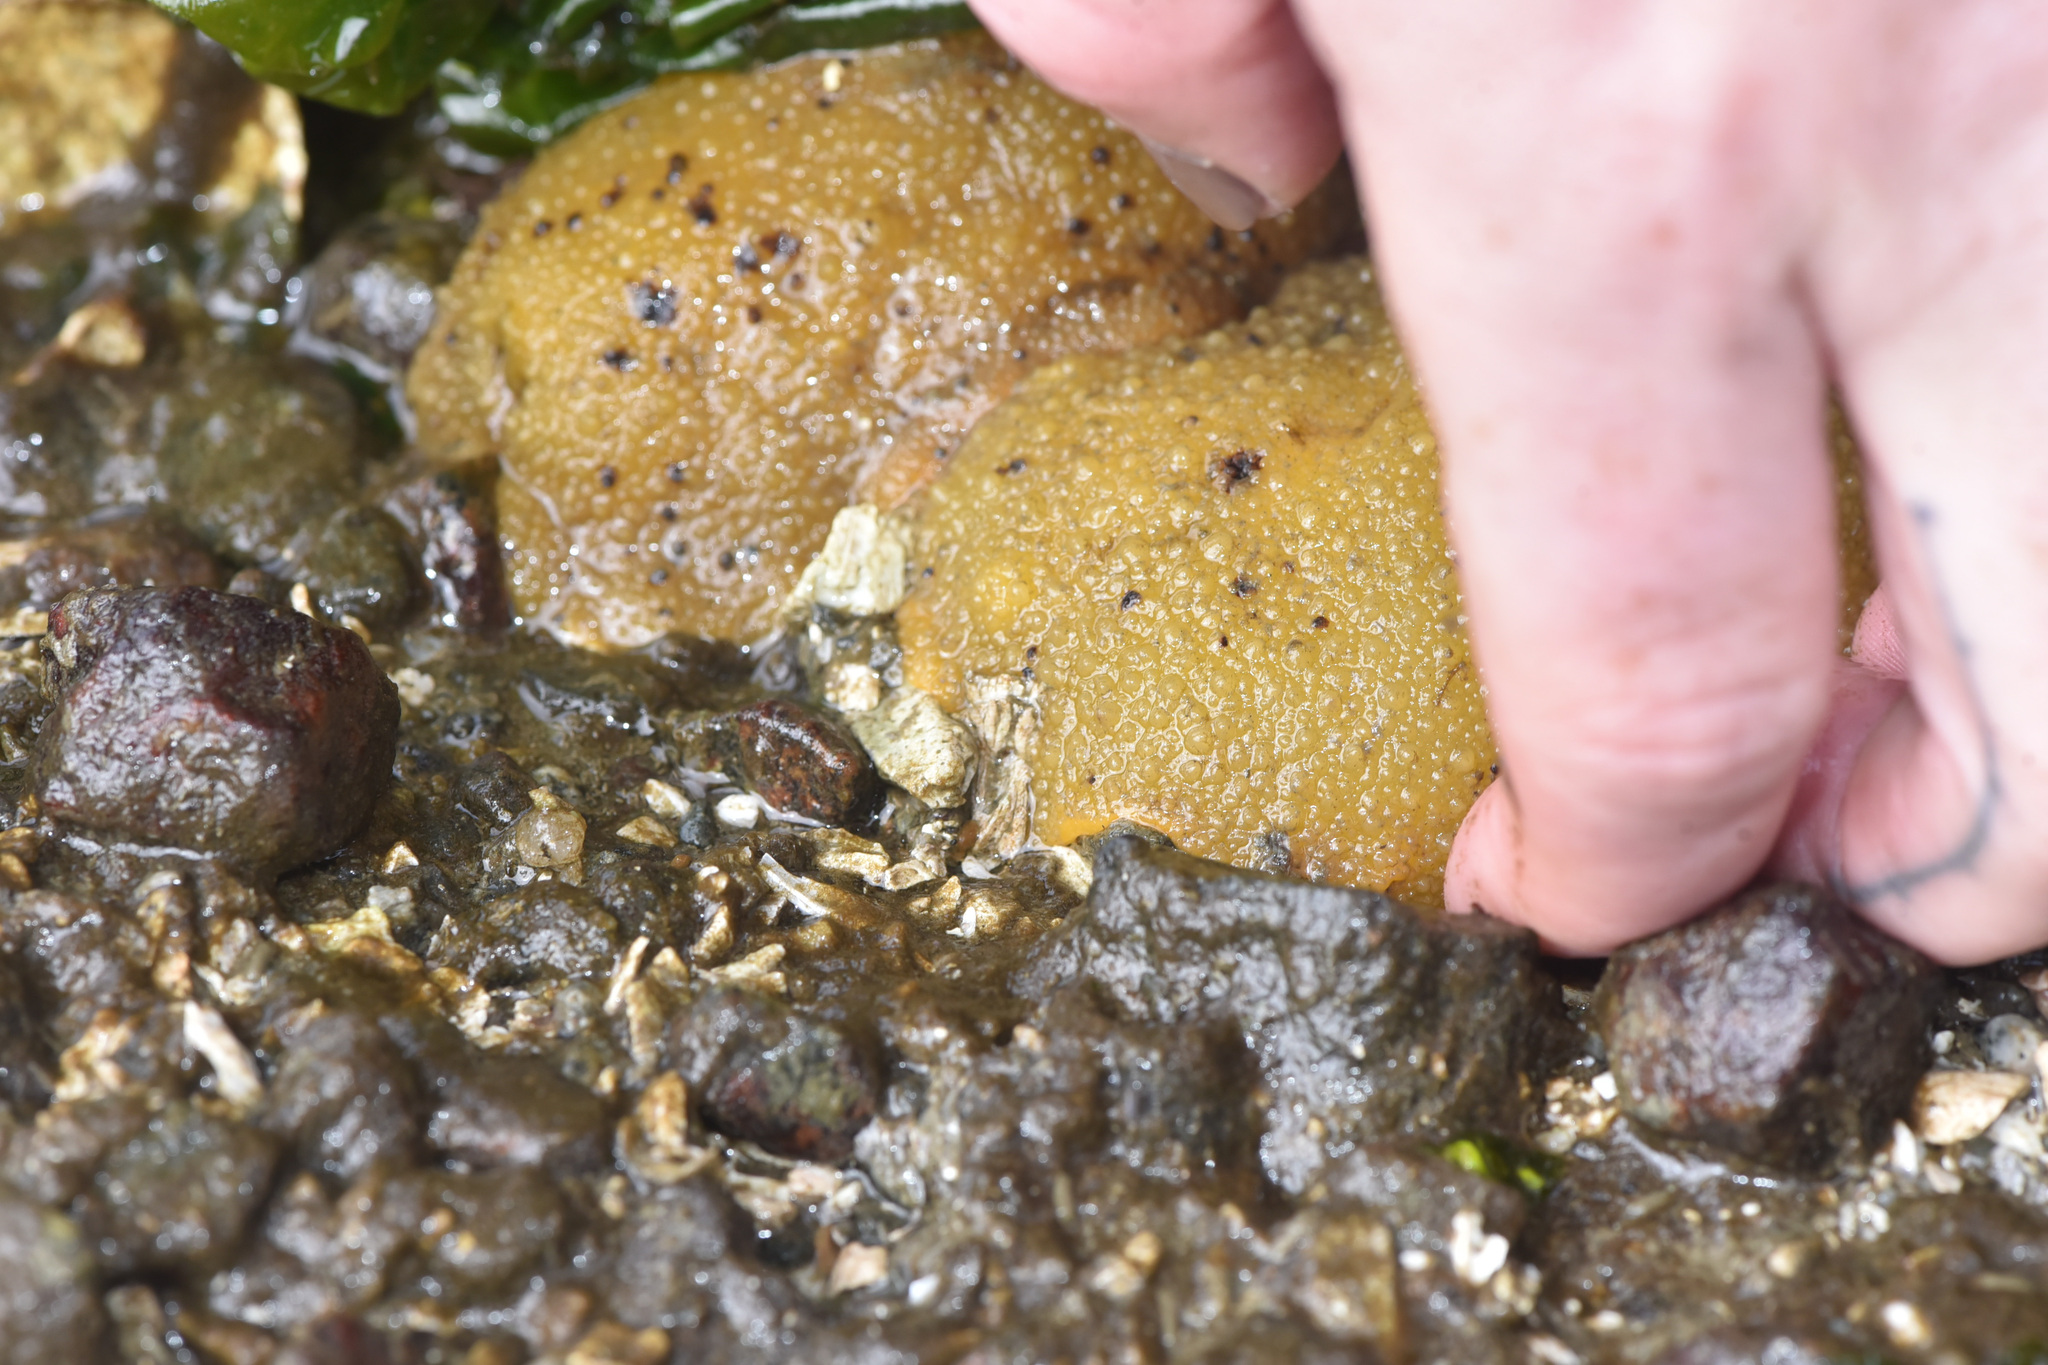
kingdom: Animalia
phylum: Mollusca
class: Gastropoda
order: Nudibranchia
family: Dorididae
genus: Doris
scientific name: Doris montereyensis
